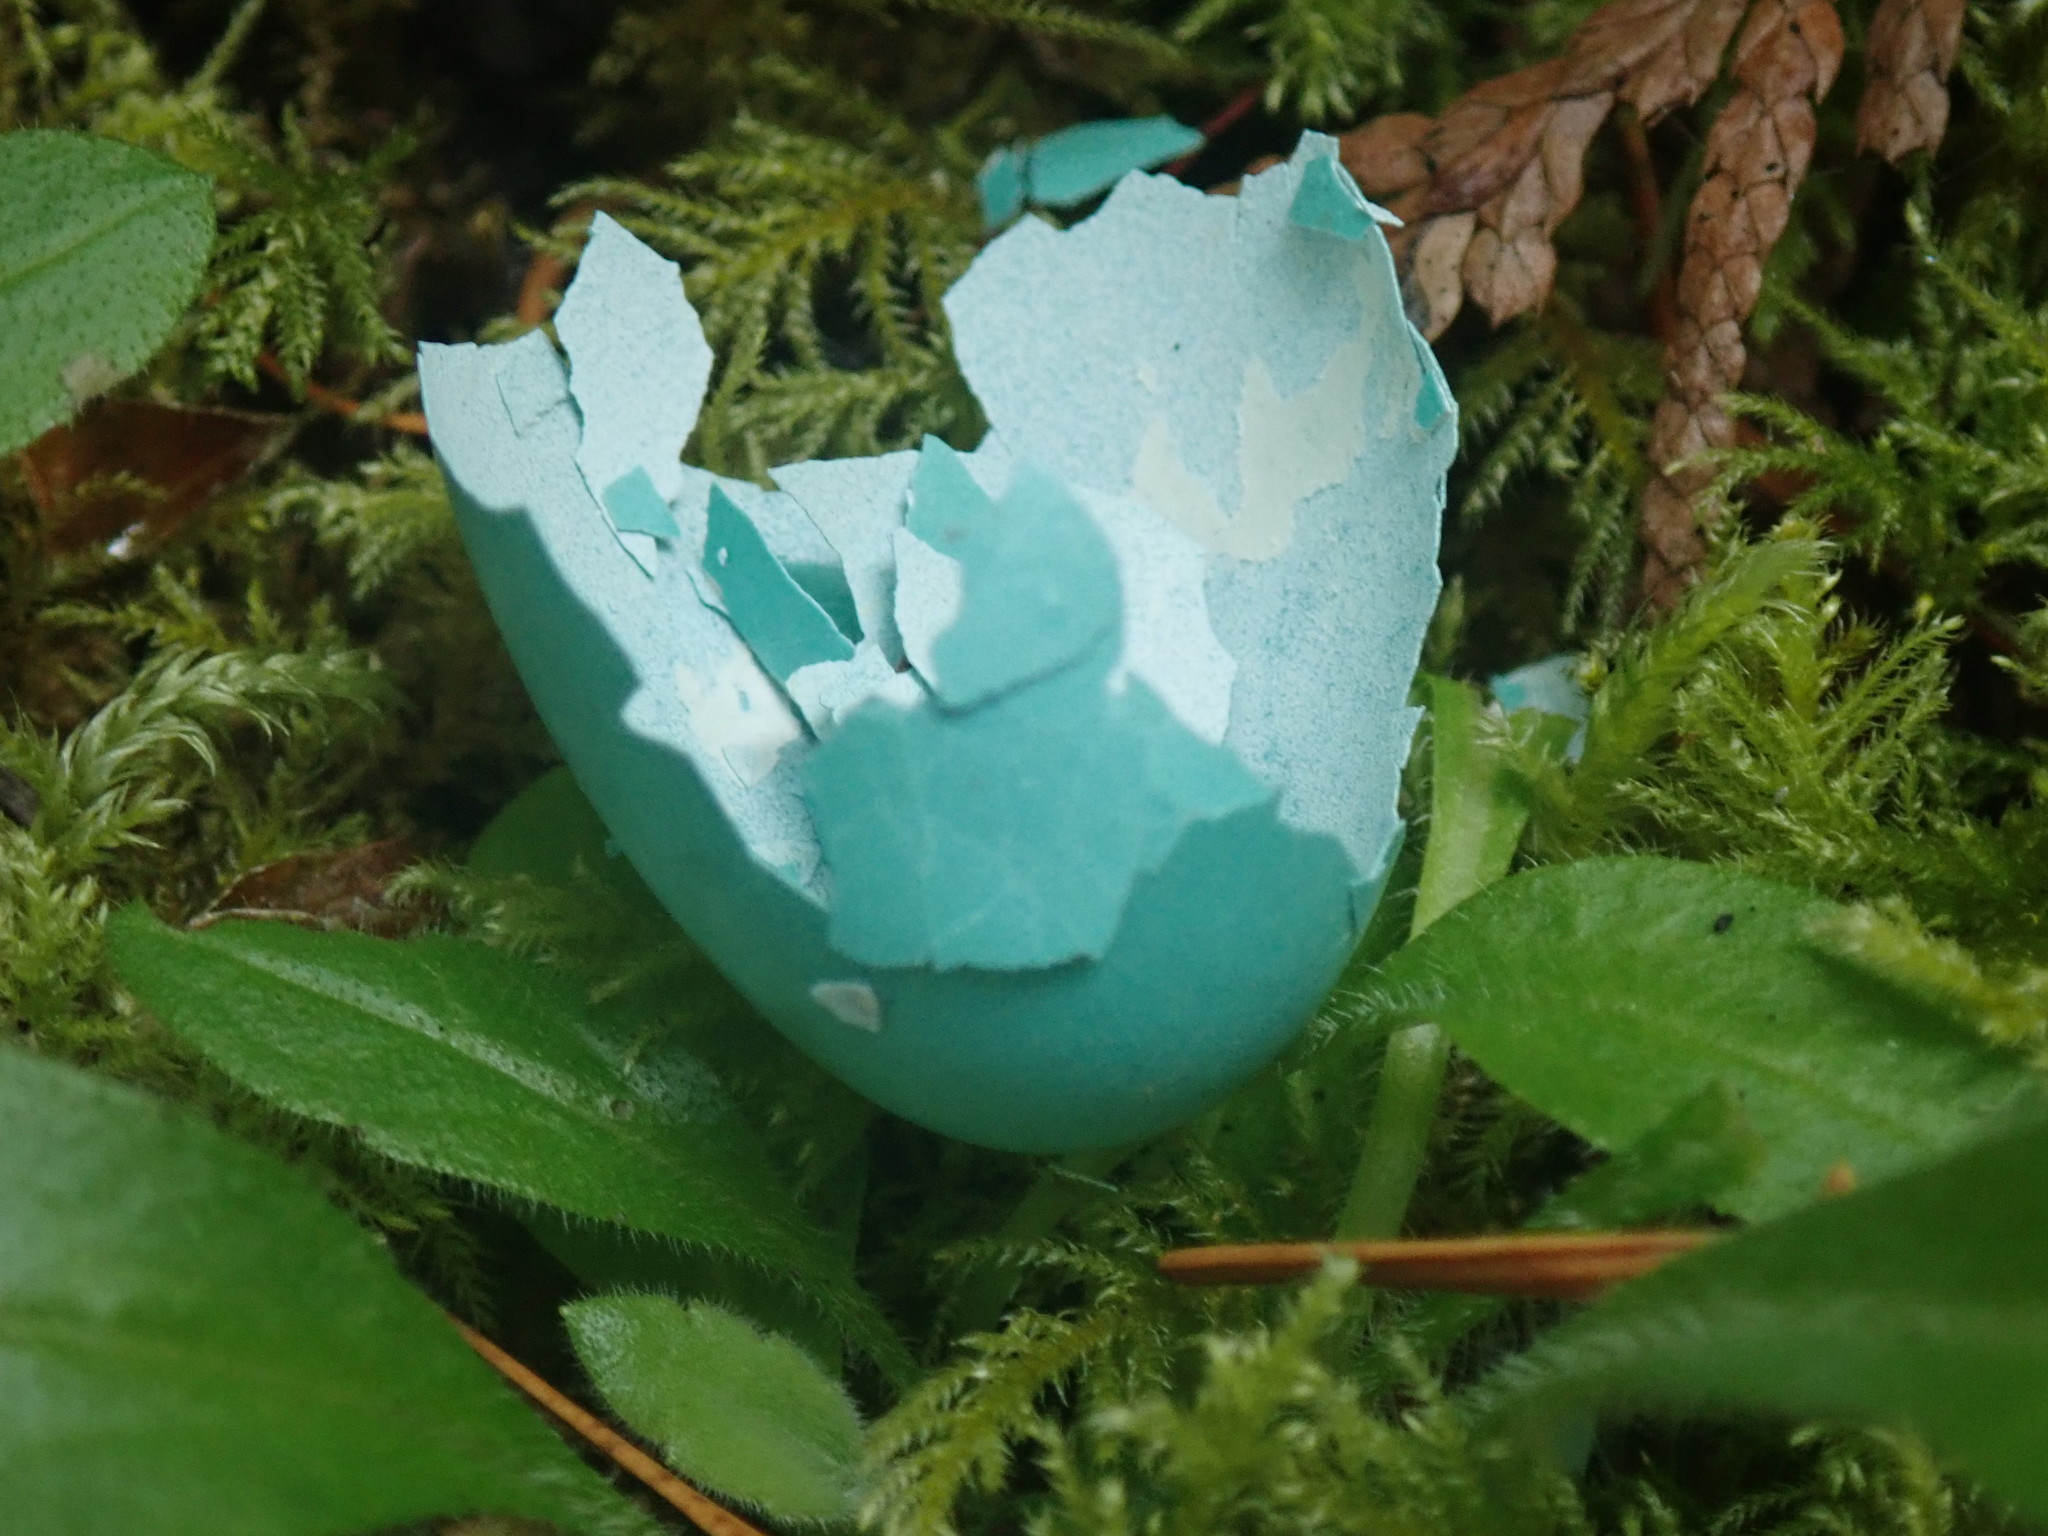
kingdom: Animalia
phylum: Chordata
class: Aves
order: Passeriformes
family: Turdidae
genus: Turdus
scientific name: Turdus migratorius
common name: American robin
